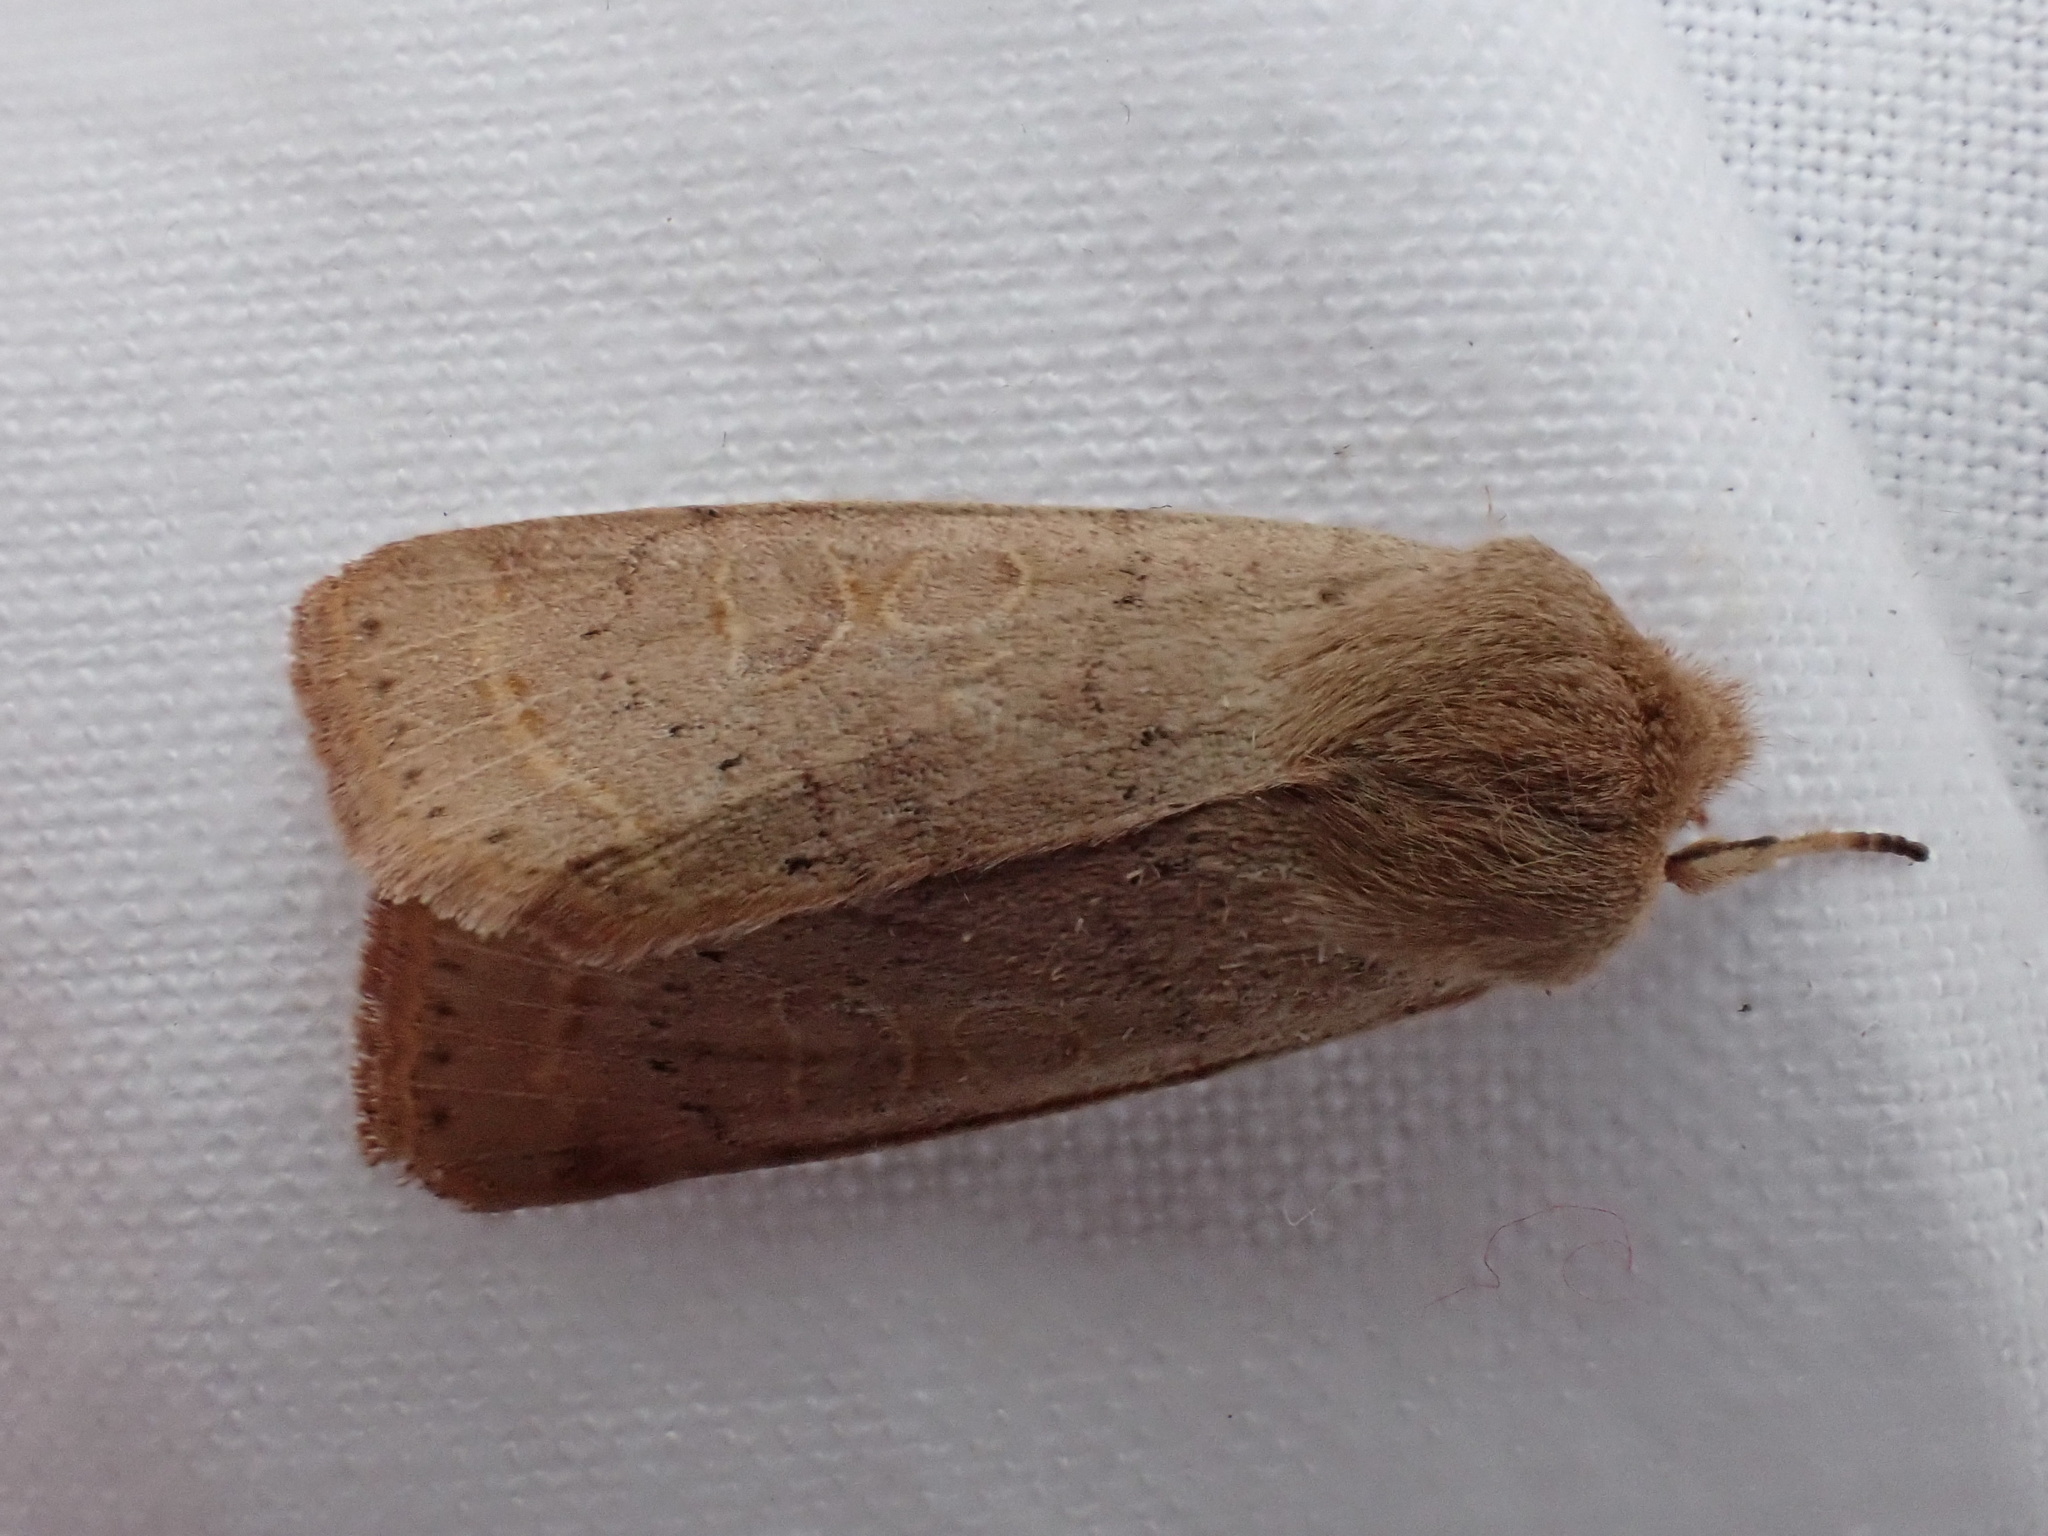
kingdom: Animalia
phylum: Arthropoda
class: Insecta
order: Lepidoptera
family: Noctuidae
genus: Orthosia
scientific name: Orthosia cerasi
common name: Common quaker
